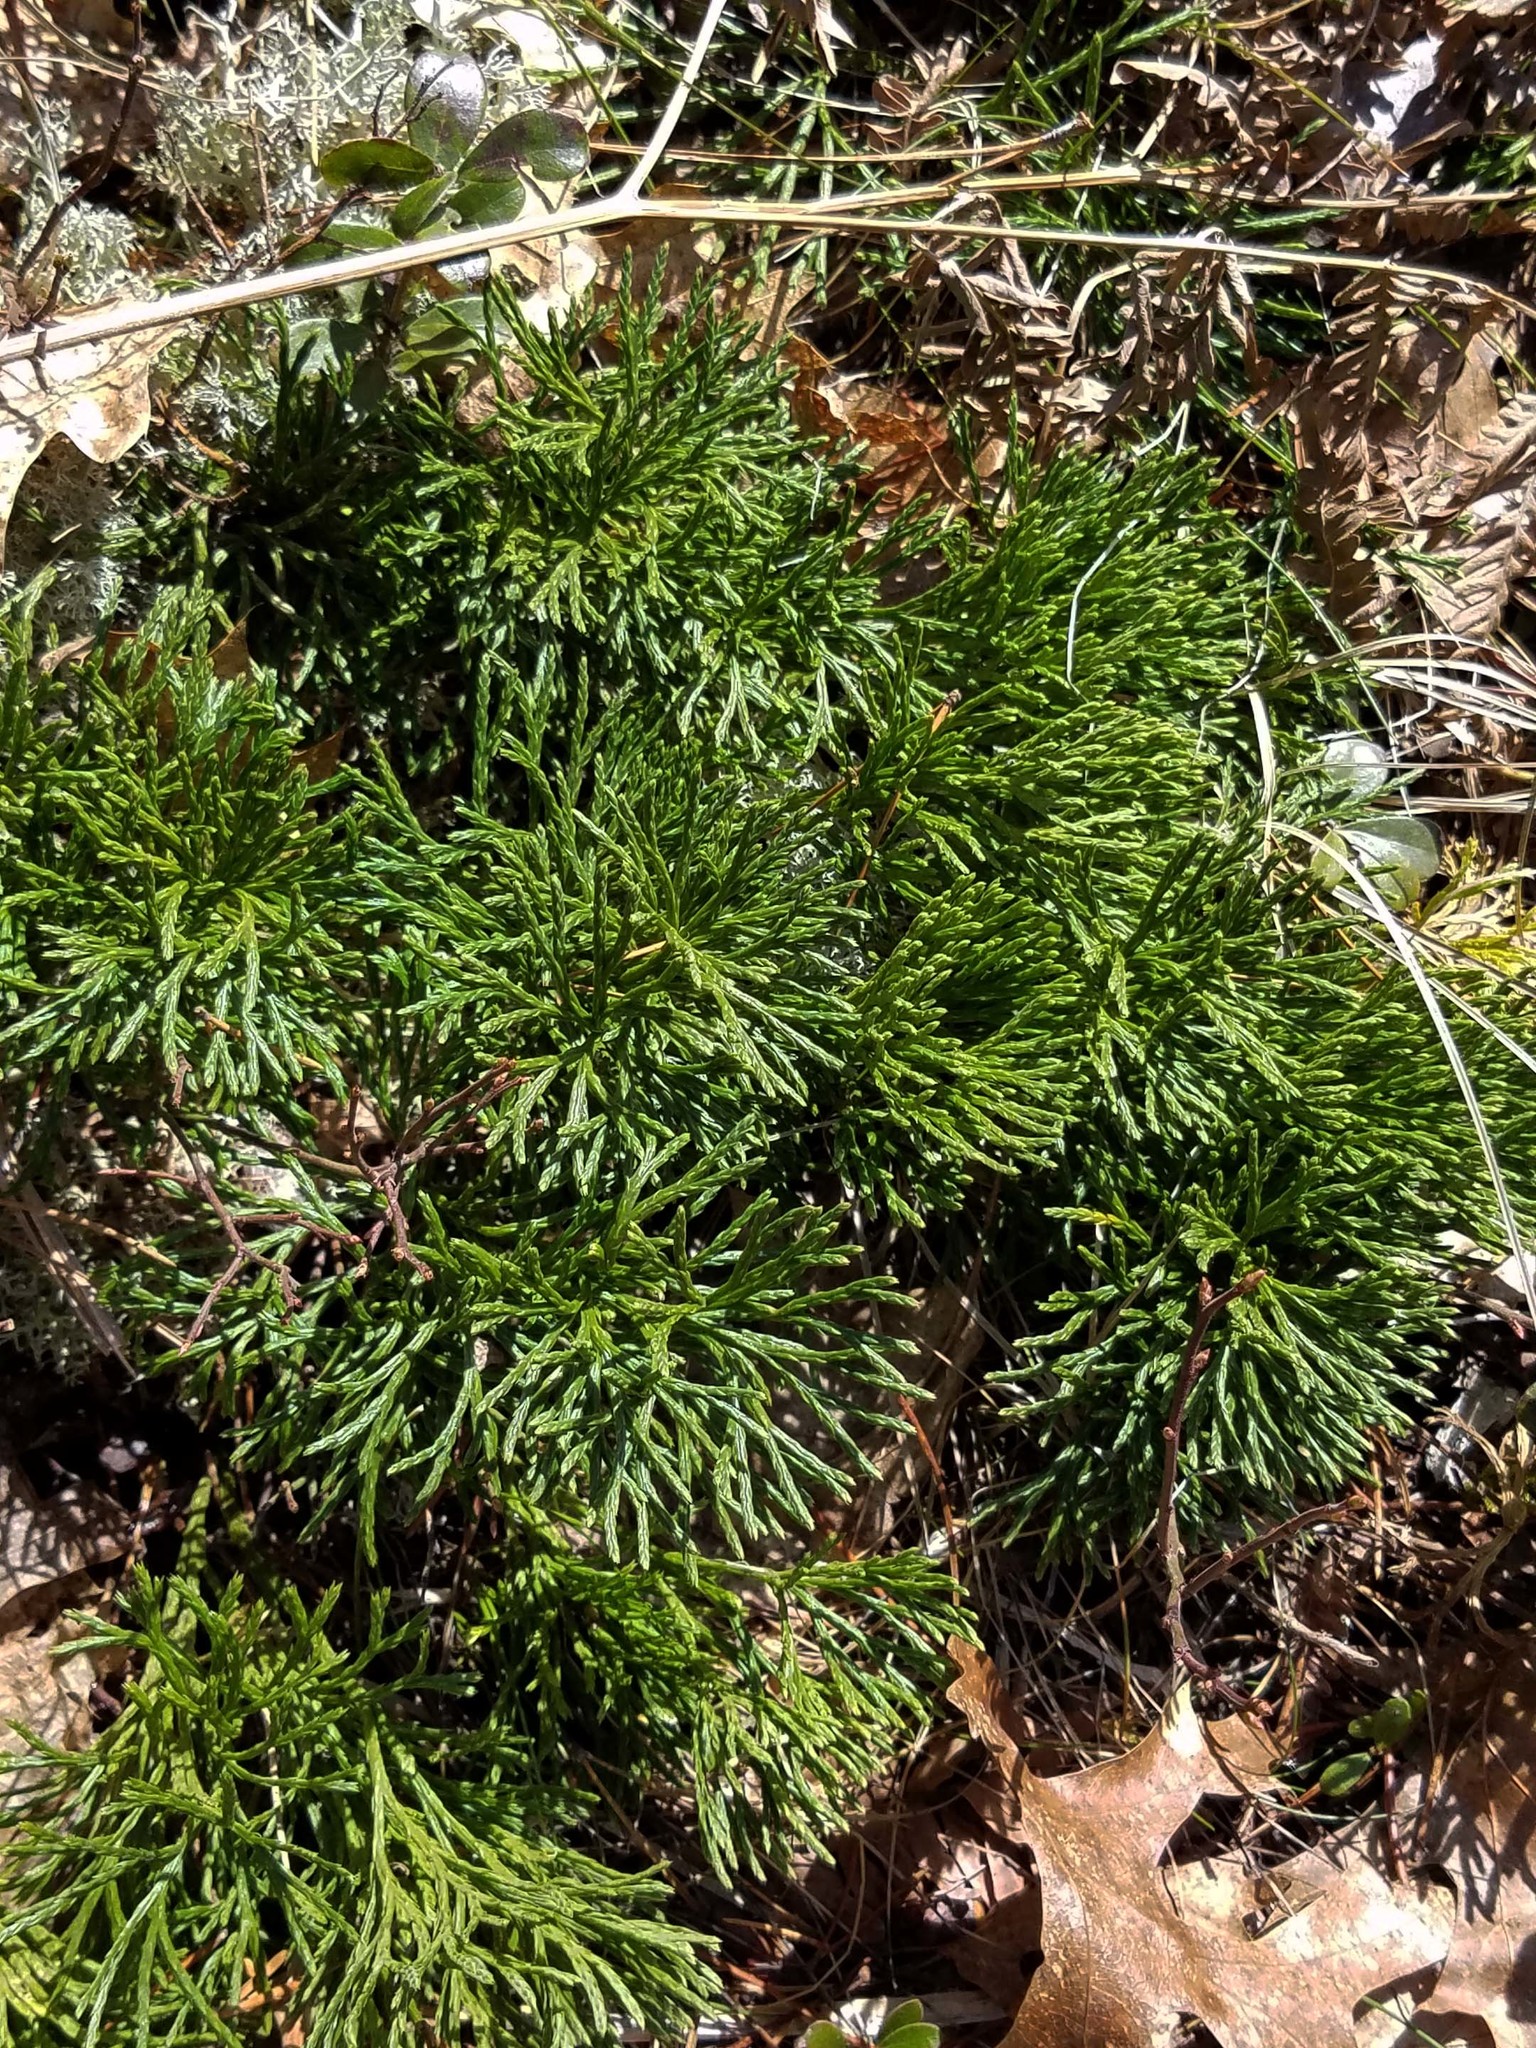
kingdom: Plantae
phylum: Tracheophyta
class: Lycopodiopsida
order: Lycopodiales
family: Lycopodiaceae
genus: Diphasiastrum
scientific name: Diphasiastrum complanatum
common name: Northern running-pine
